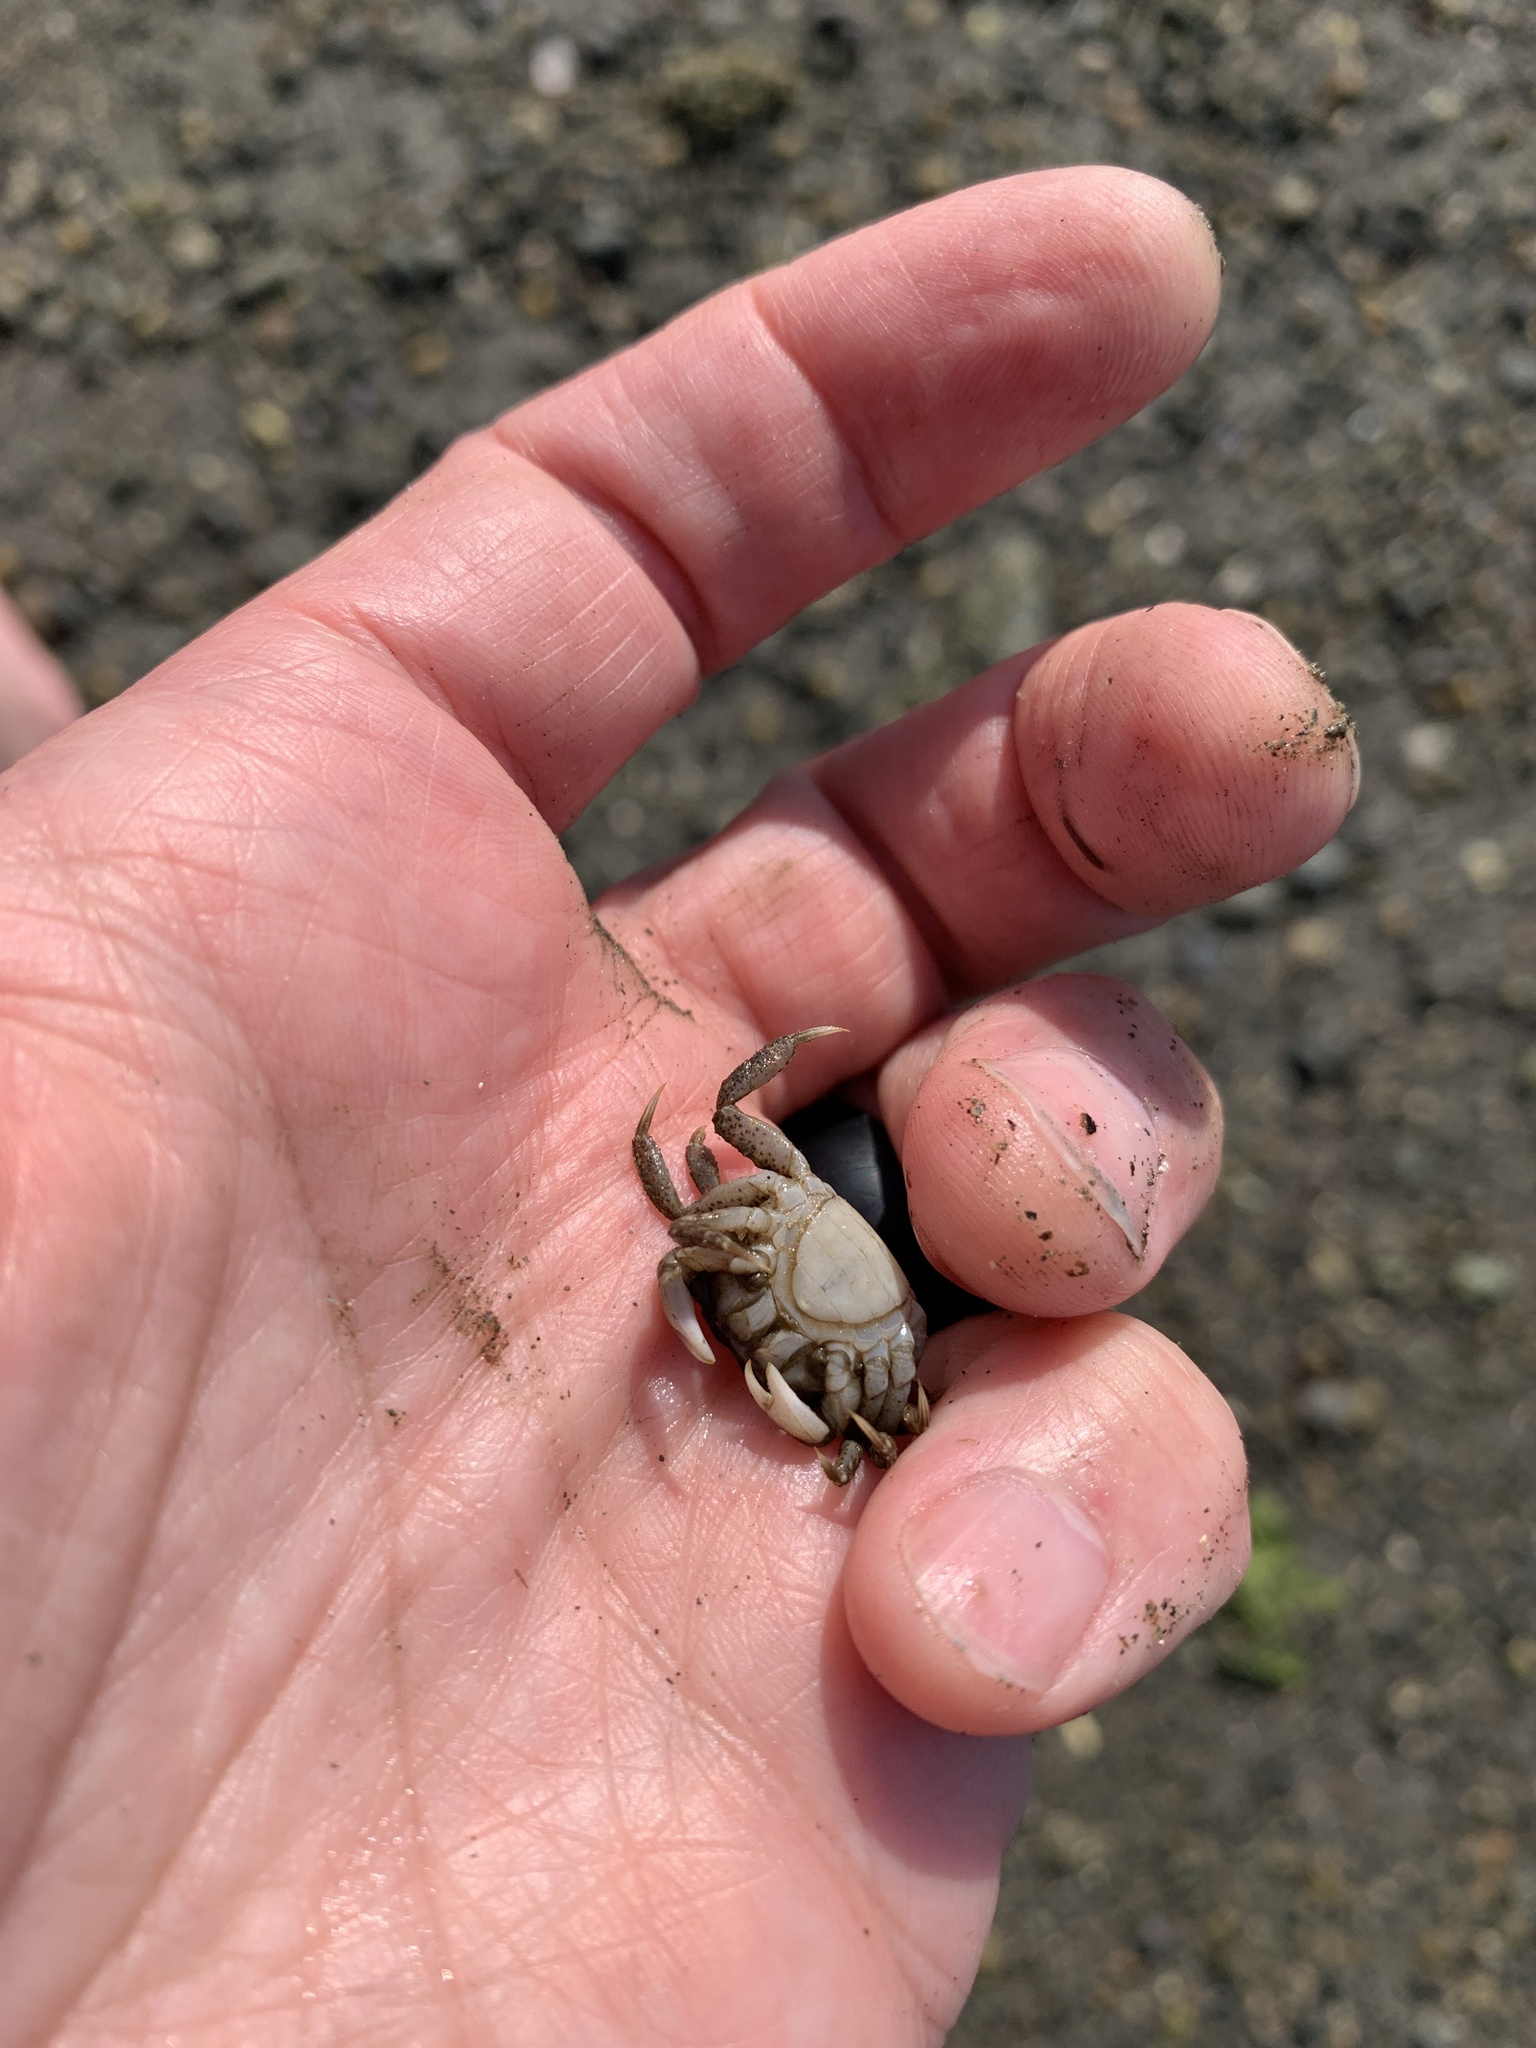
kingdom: Animalia
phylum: Arthropoda
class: Malacostraca
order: Decapoda
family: Varunidae
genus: Hemigrapsus
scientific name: Hemigrapsus oregonensis
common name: Yellow shore crab
